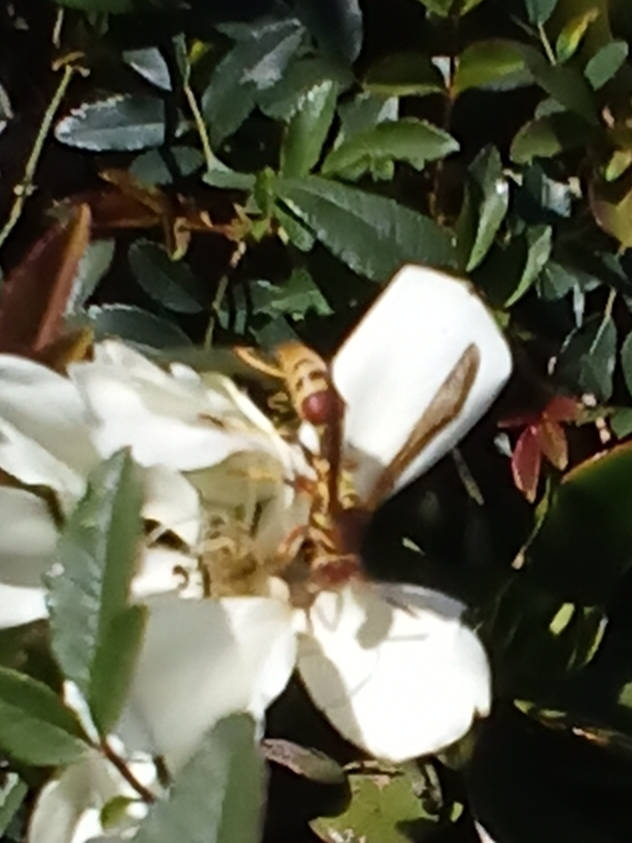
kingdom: Animalia
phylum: Arthropoda
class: Insecta
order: Hymenoptera
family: Eumenidae
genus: Polistes
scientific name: Polistes exclamans
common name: Paper wasp
